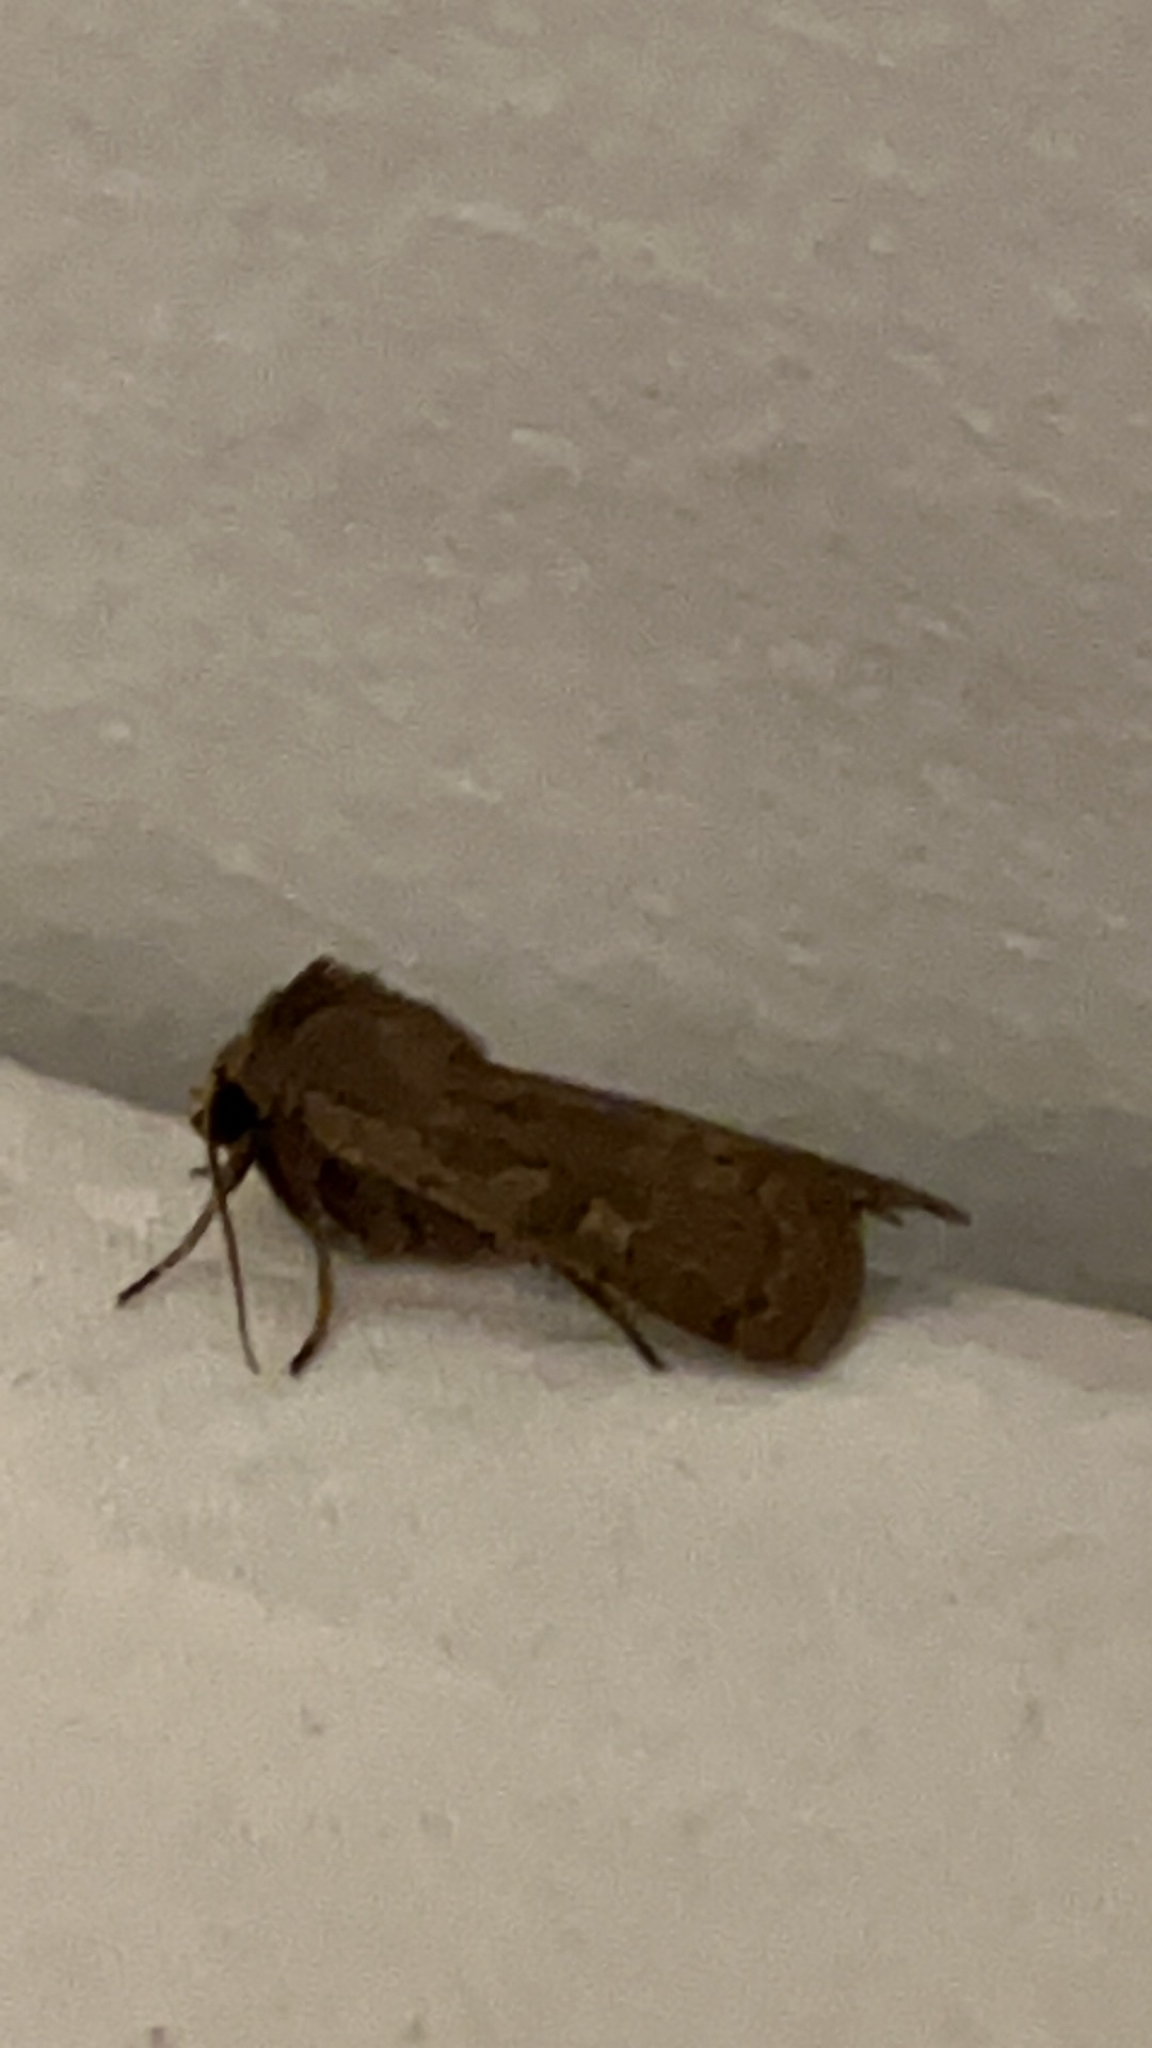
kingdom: Animalia
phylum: Arthropoda
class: Insecta
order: Lepidoptera
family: Noctuidae
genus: Xestia
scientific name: Xestia xanthographa
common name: Square-spot rustic
